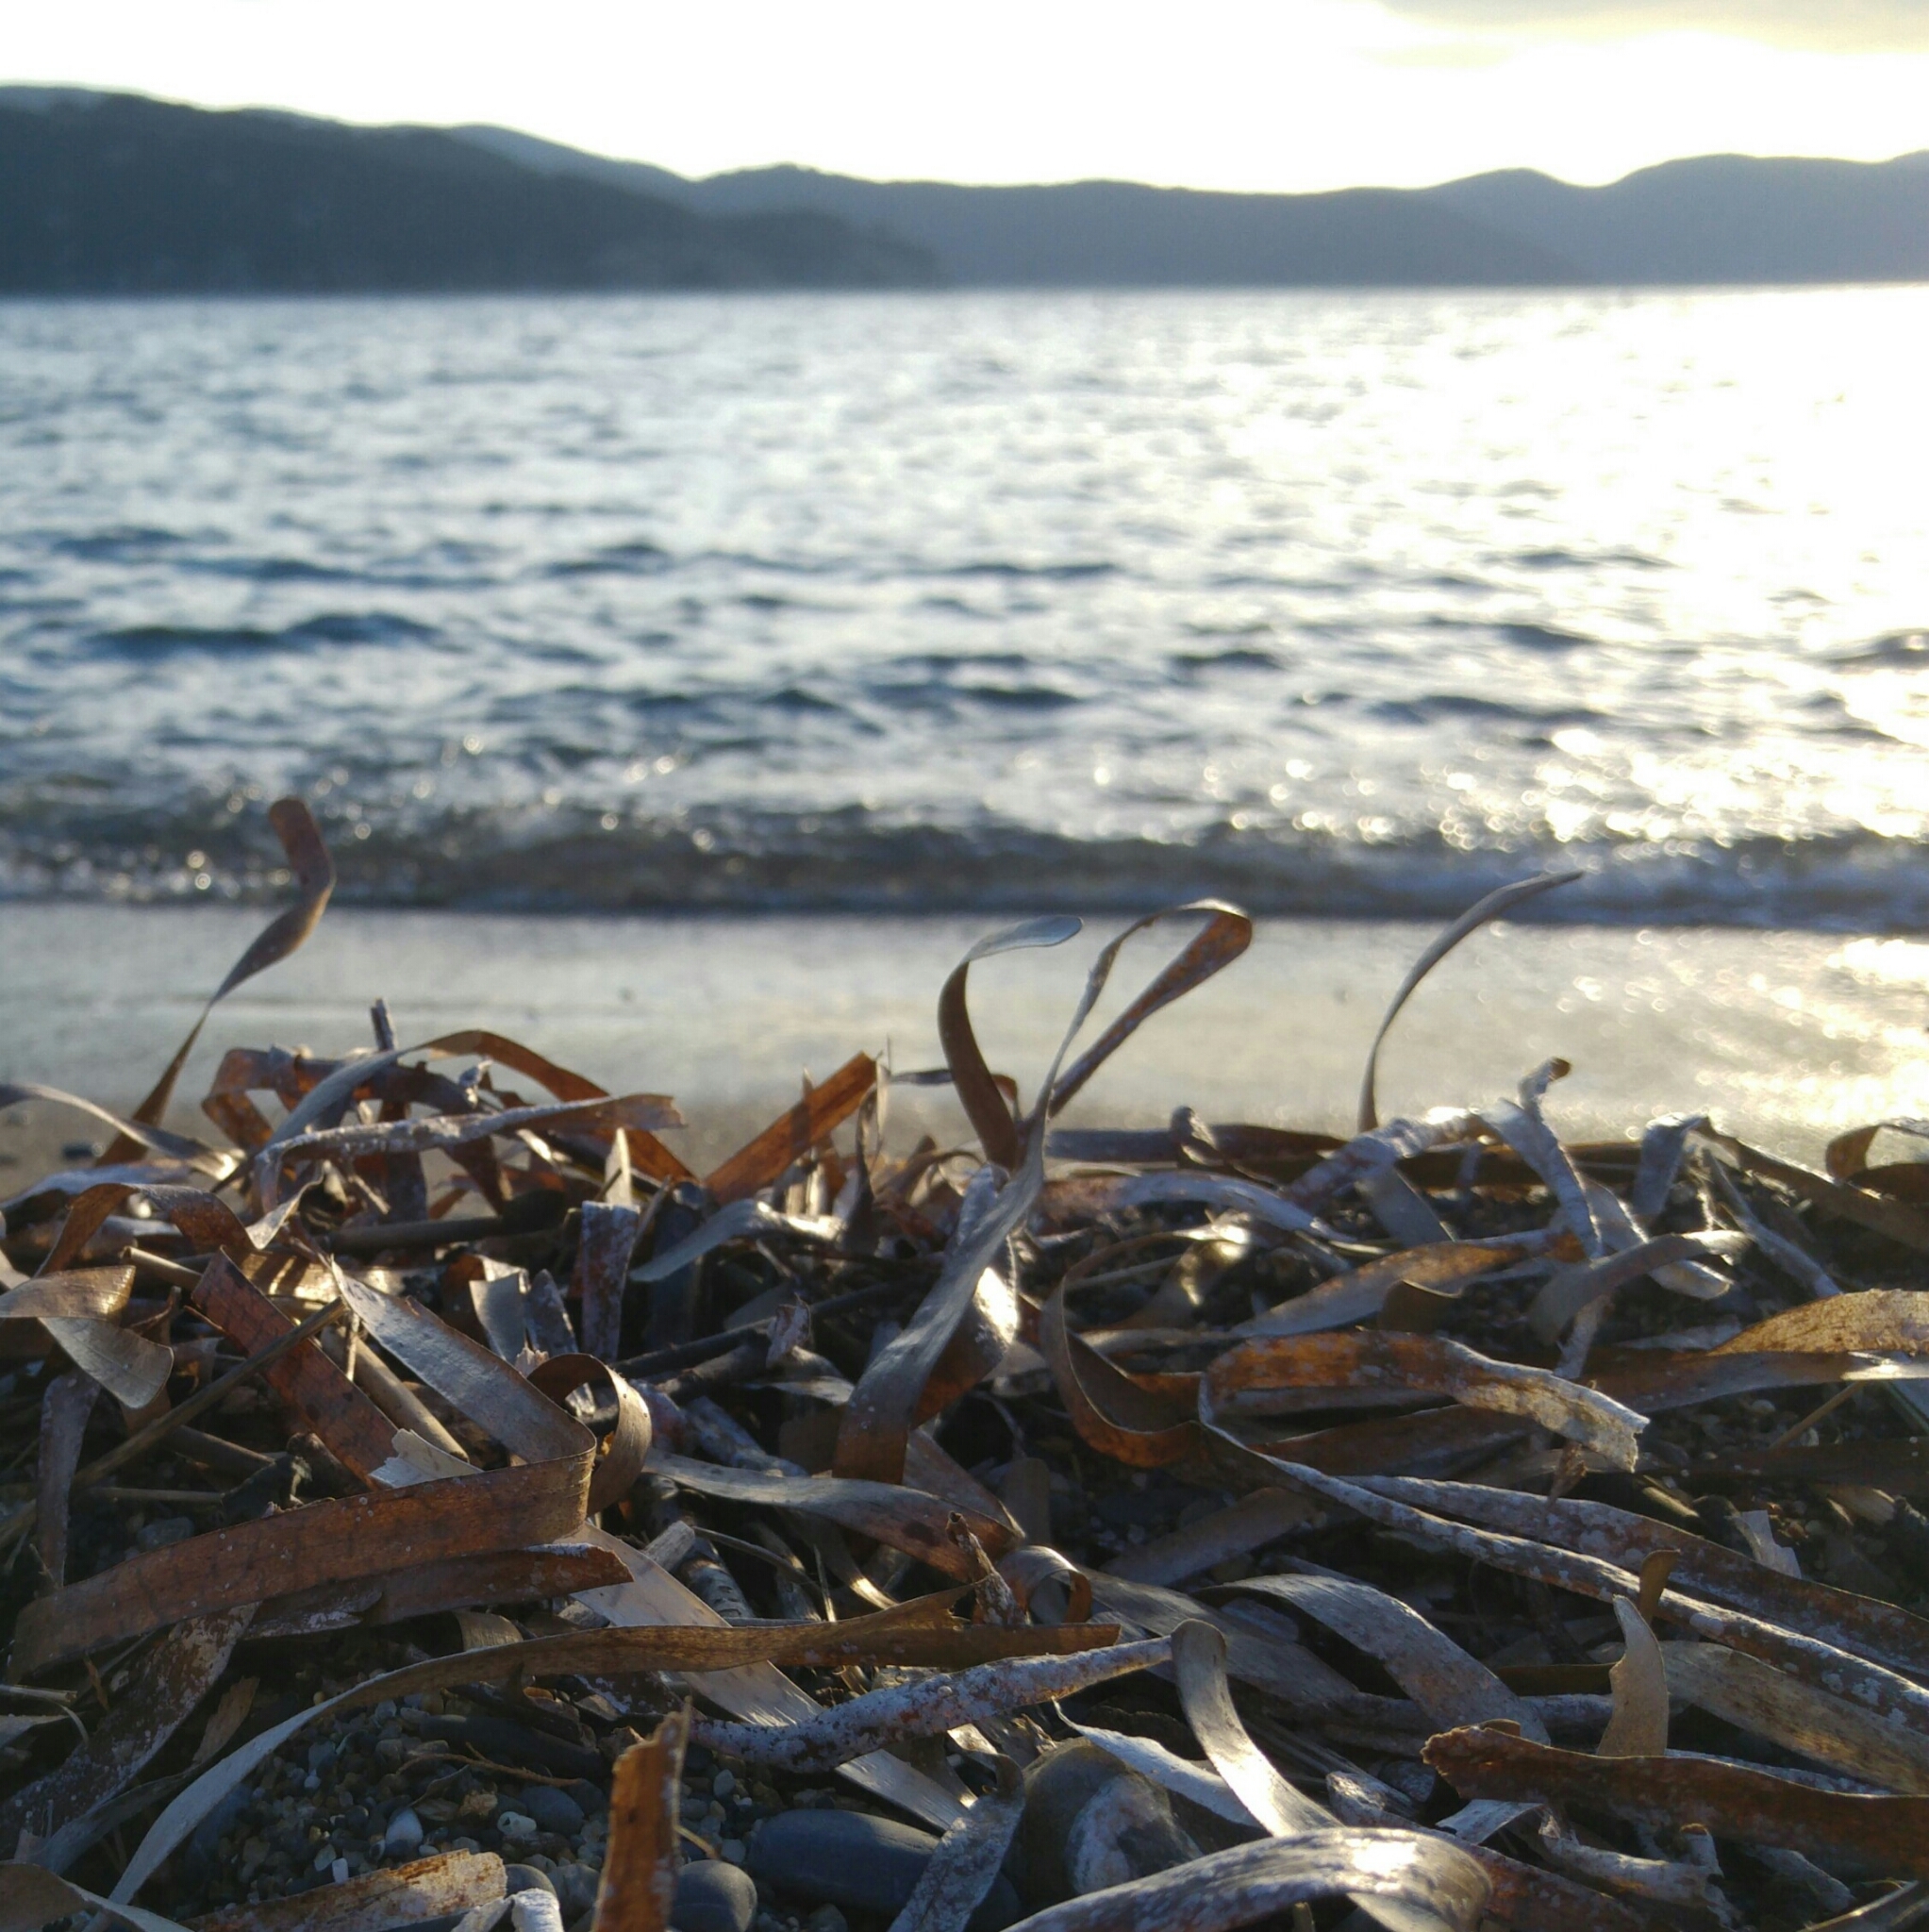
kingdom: Plantae
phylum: Tracheophyta
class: Liliopsida
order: Alismatales
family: Posidoniaceae
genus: Posidonia
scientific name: Posidonia oceanica
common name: Mediterranean tapeweed
